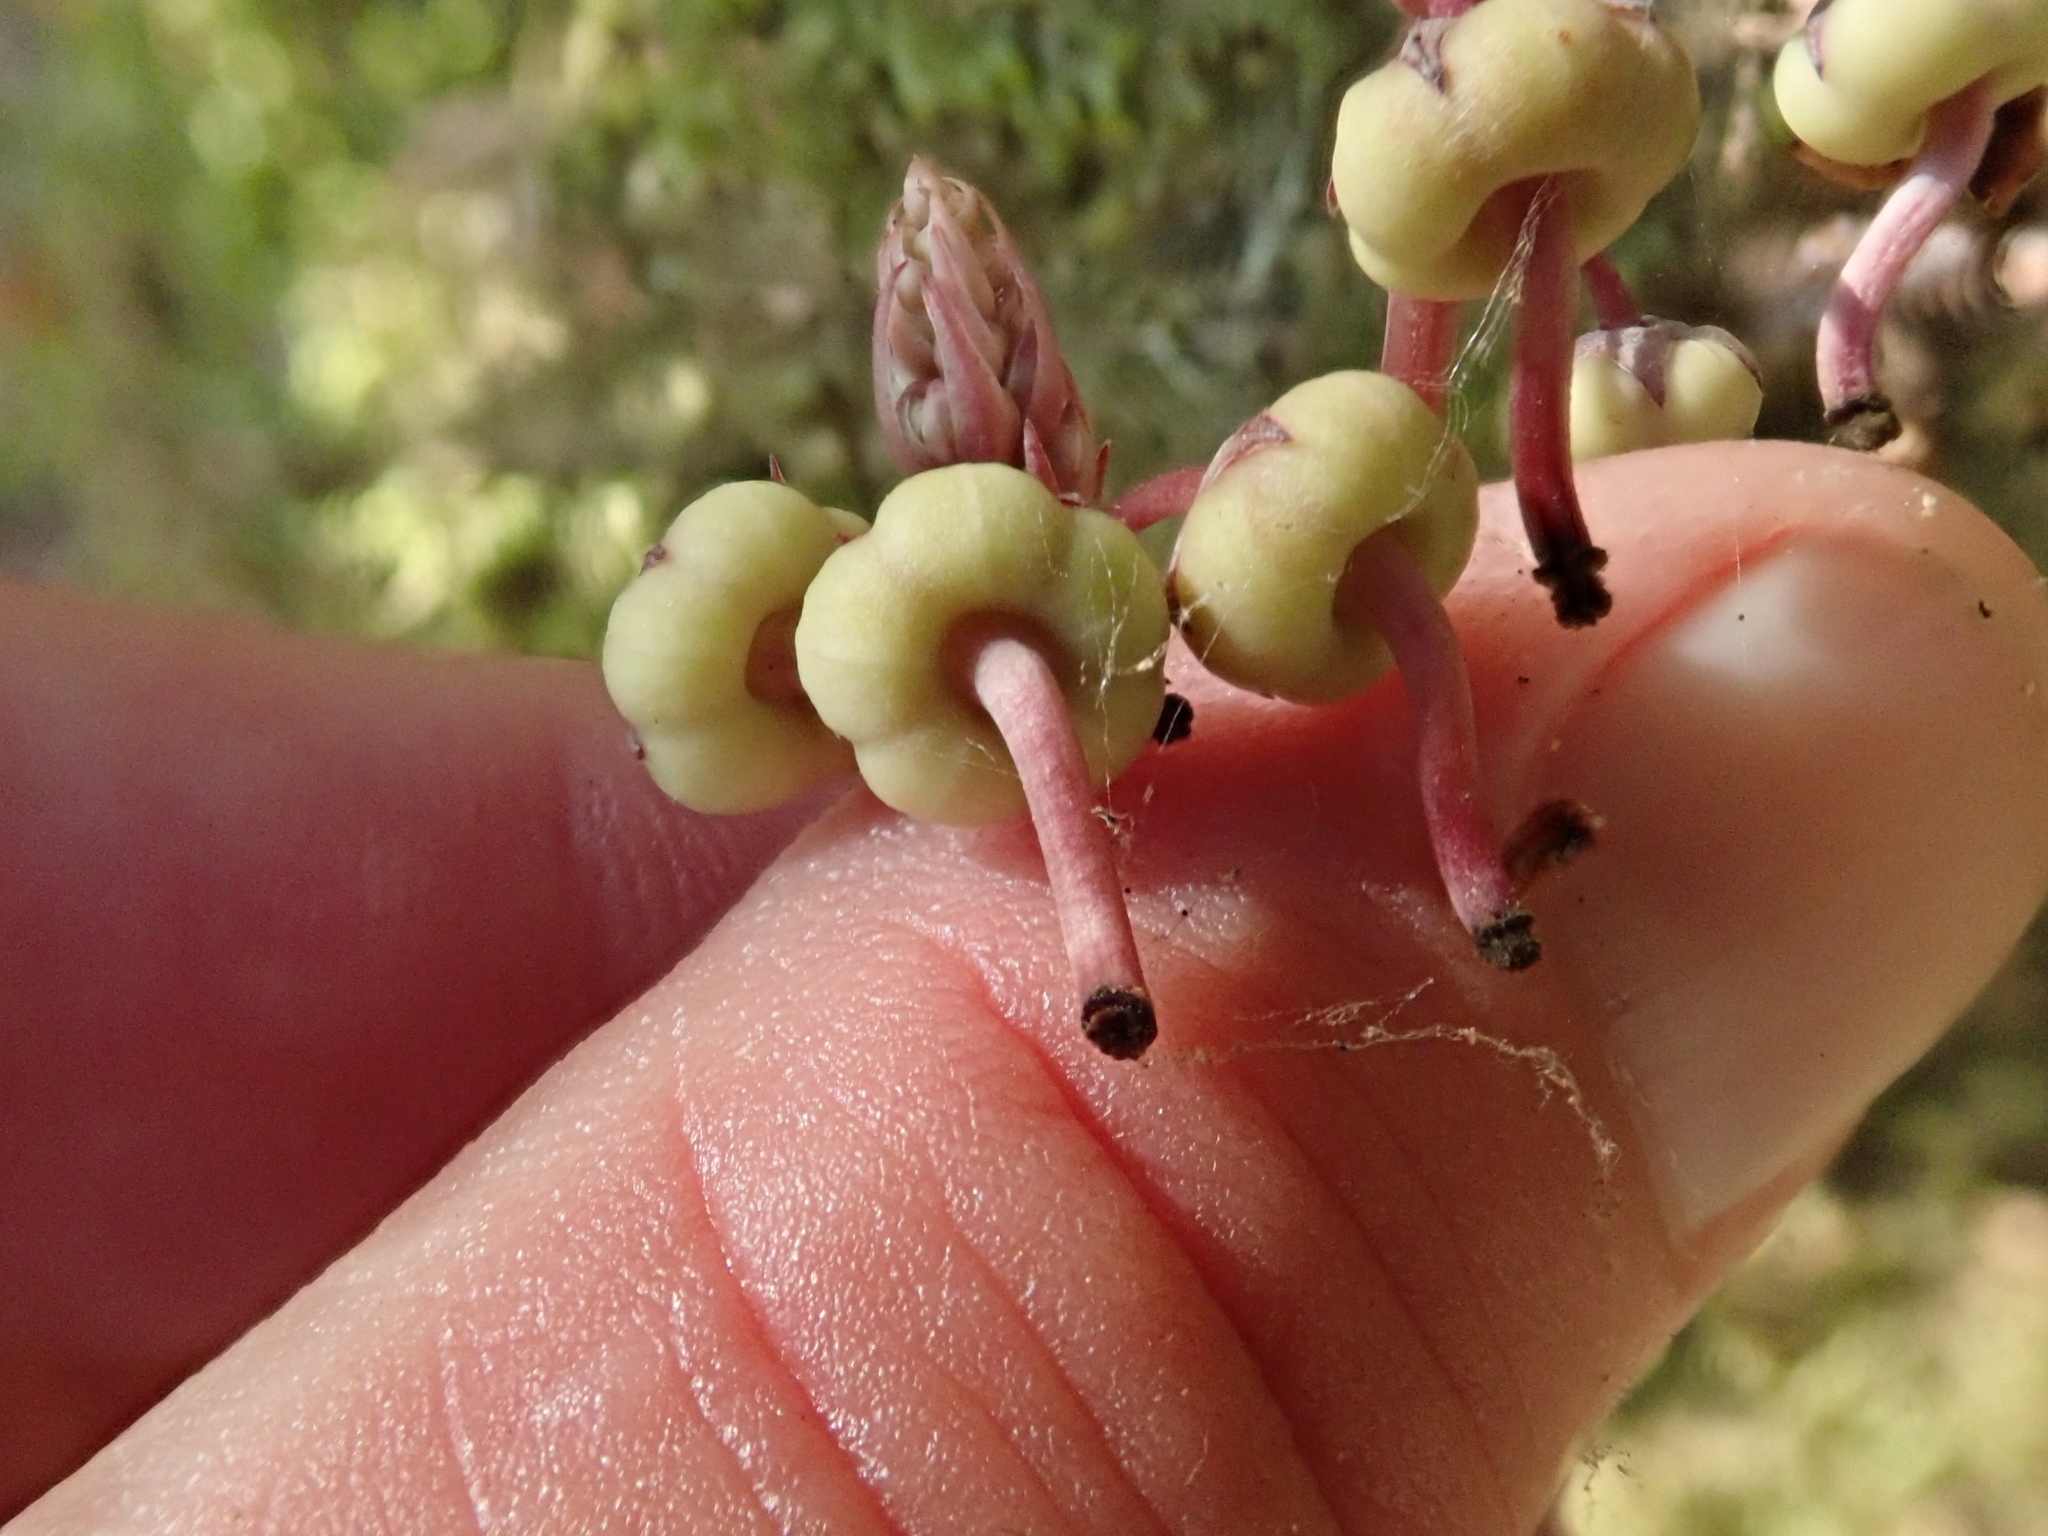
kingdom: Plantae
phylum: Tracheophyta
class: Magnoliopsida
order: Ericales
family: Ericaceae
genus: Pyrola
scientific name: Pyrola aphylla
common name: Leafless wintergreen
